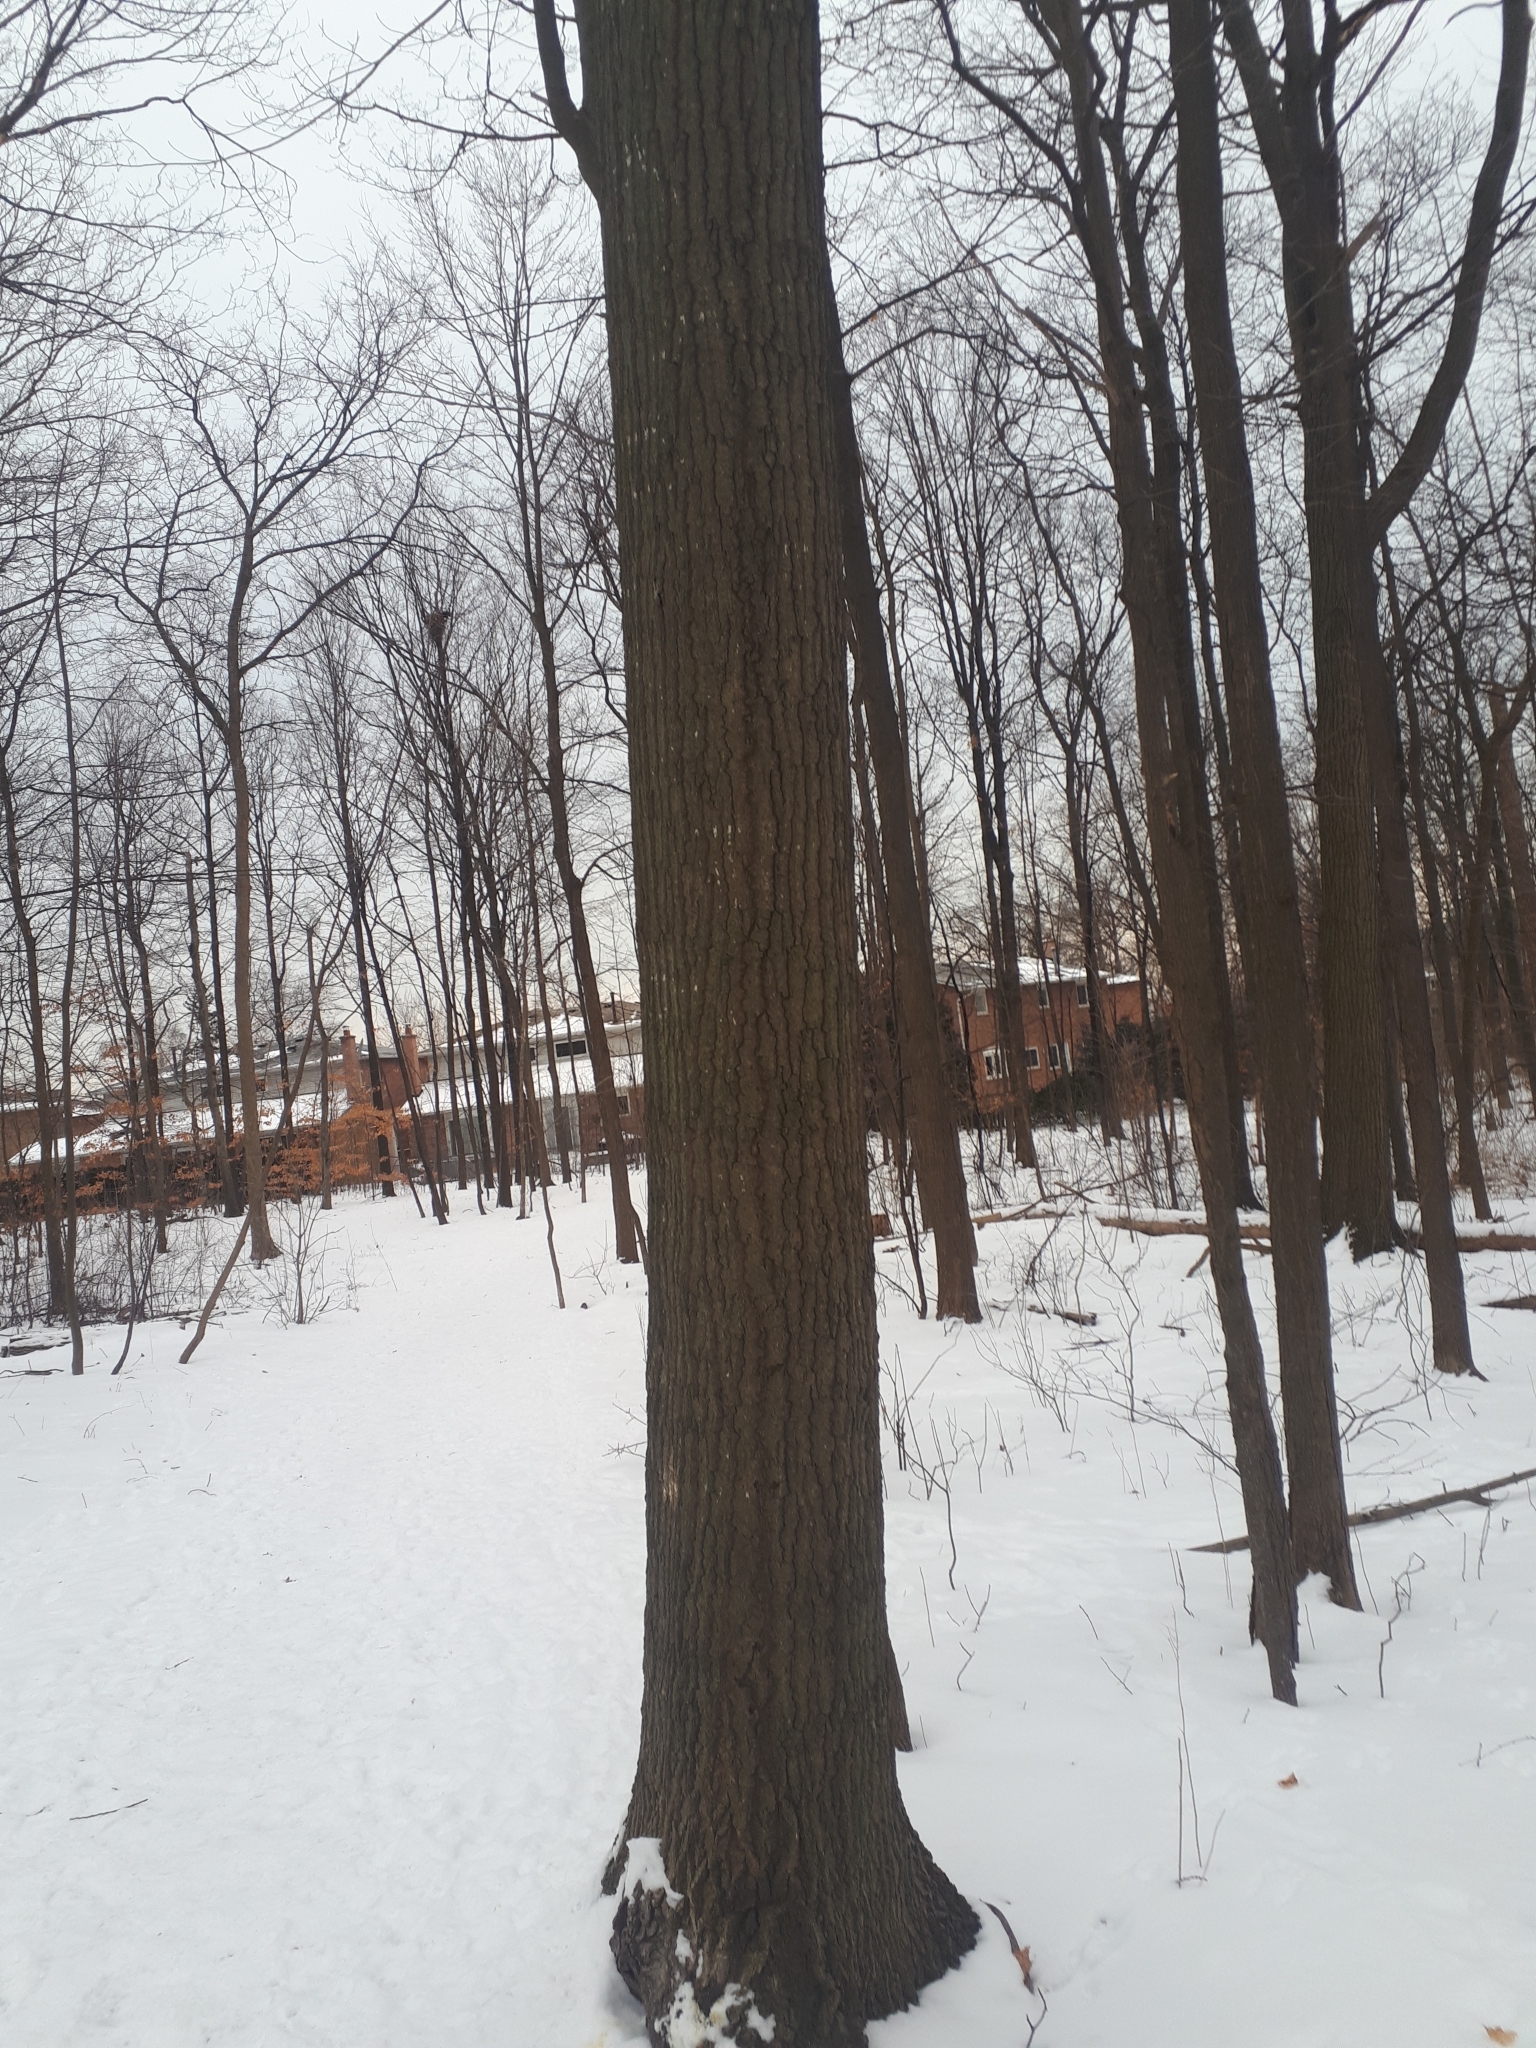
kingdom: Plantae
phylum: Tracheophyta
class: Magnoliopsida
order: Fagales
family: Fagaceae
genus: Quercus
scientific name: Quercus rubra
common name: Red oak
